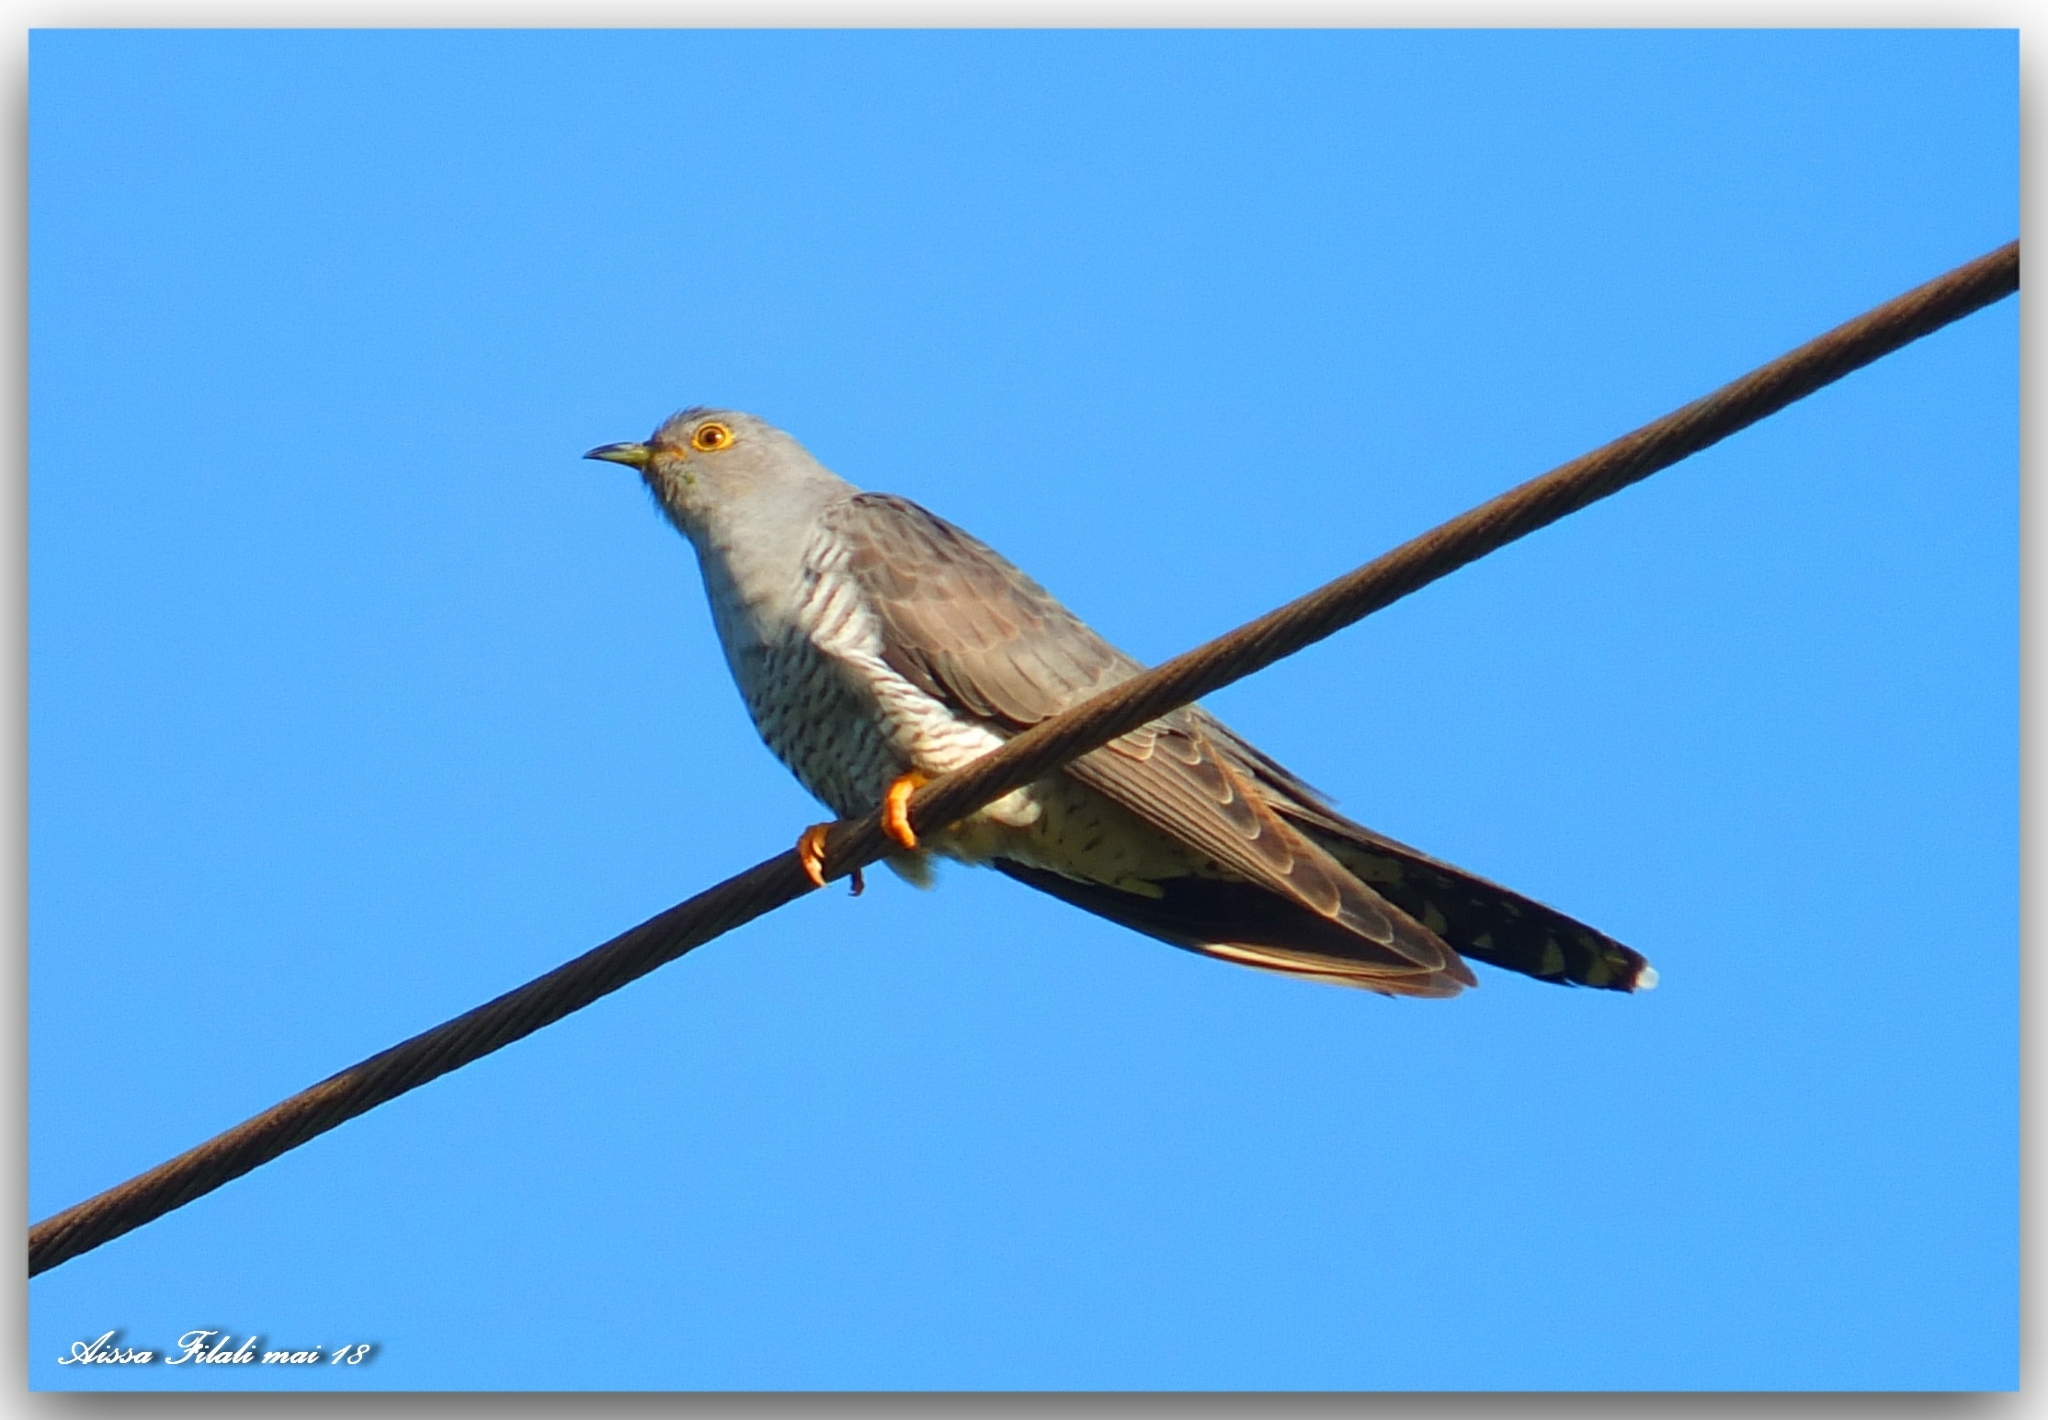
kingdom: Animalia
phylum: Chordata
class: Aves
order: Cuculiformes
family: Cuculidae
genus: Cuculus
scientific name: Cuculus canorus
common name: Common cuckoo
